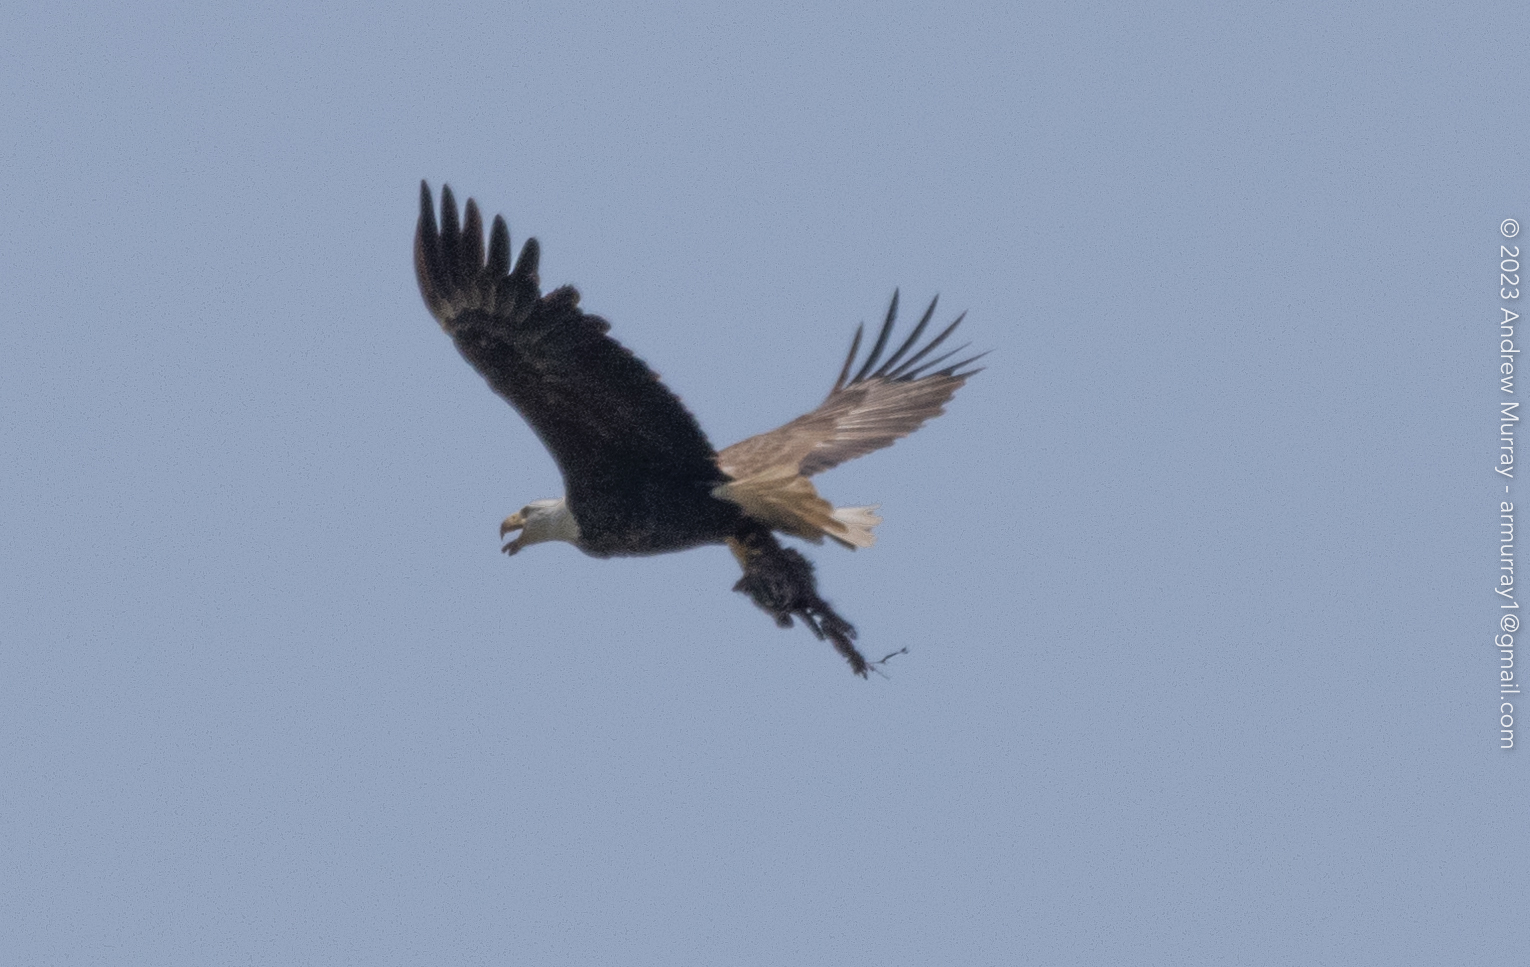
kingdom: Animalia
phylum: Chordata
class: Aves
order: Accipitriformes
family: Accipitridae
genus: Haliaeetus
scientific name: Haliaeetus leucocephalus
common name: Bald eagle
